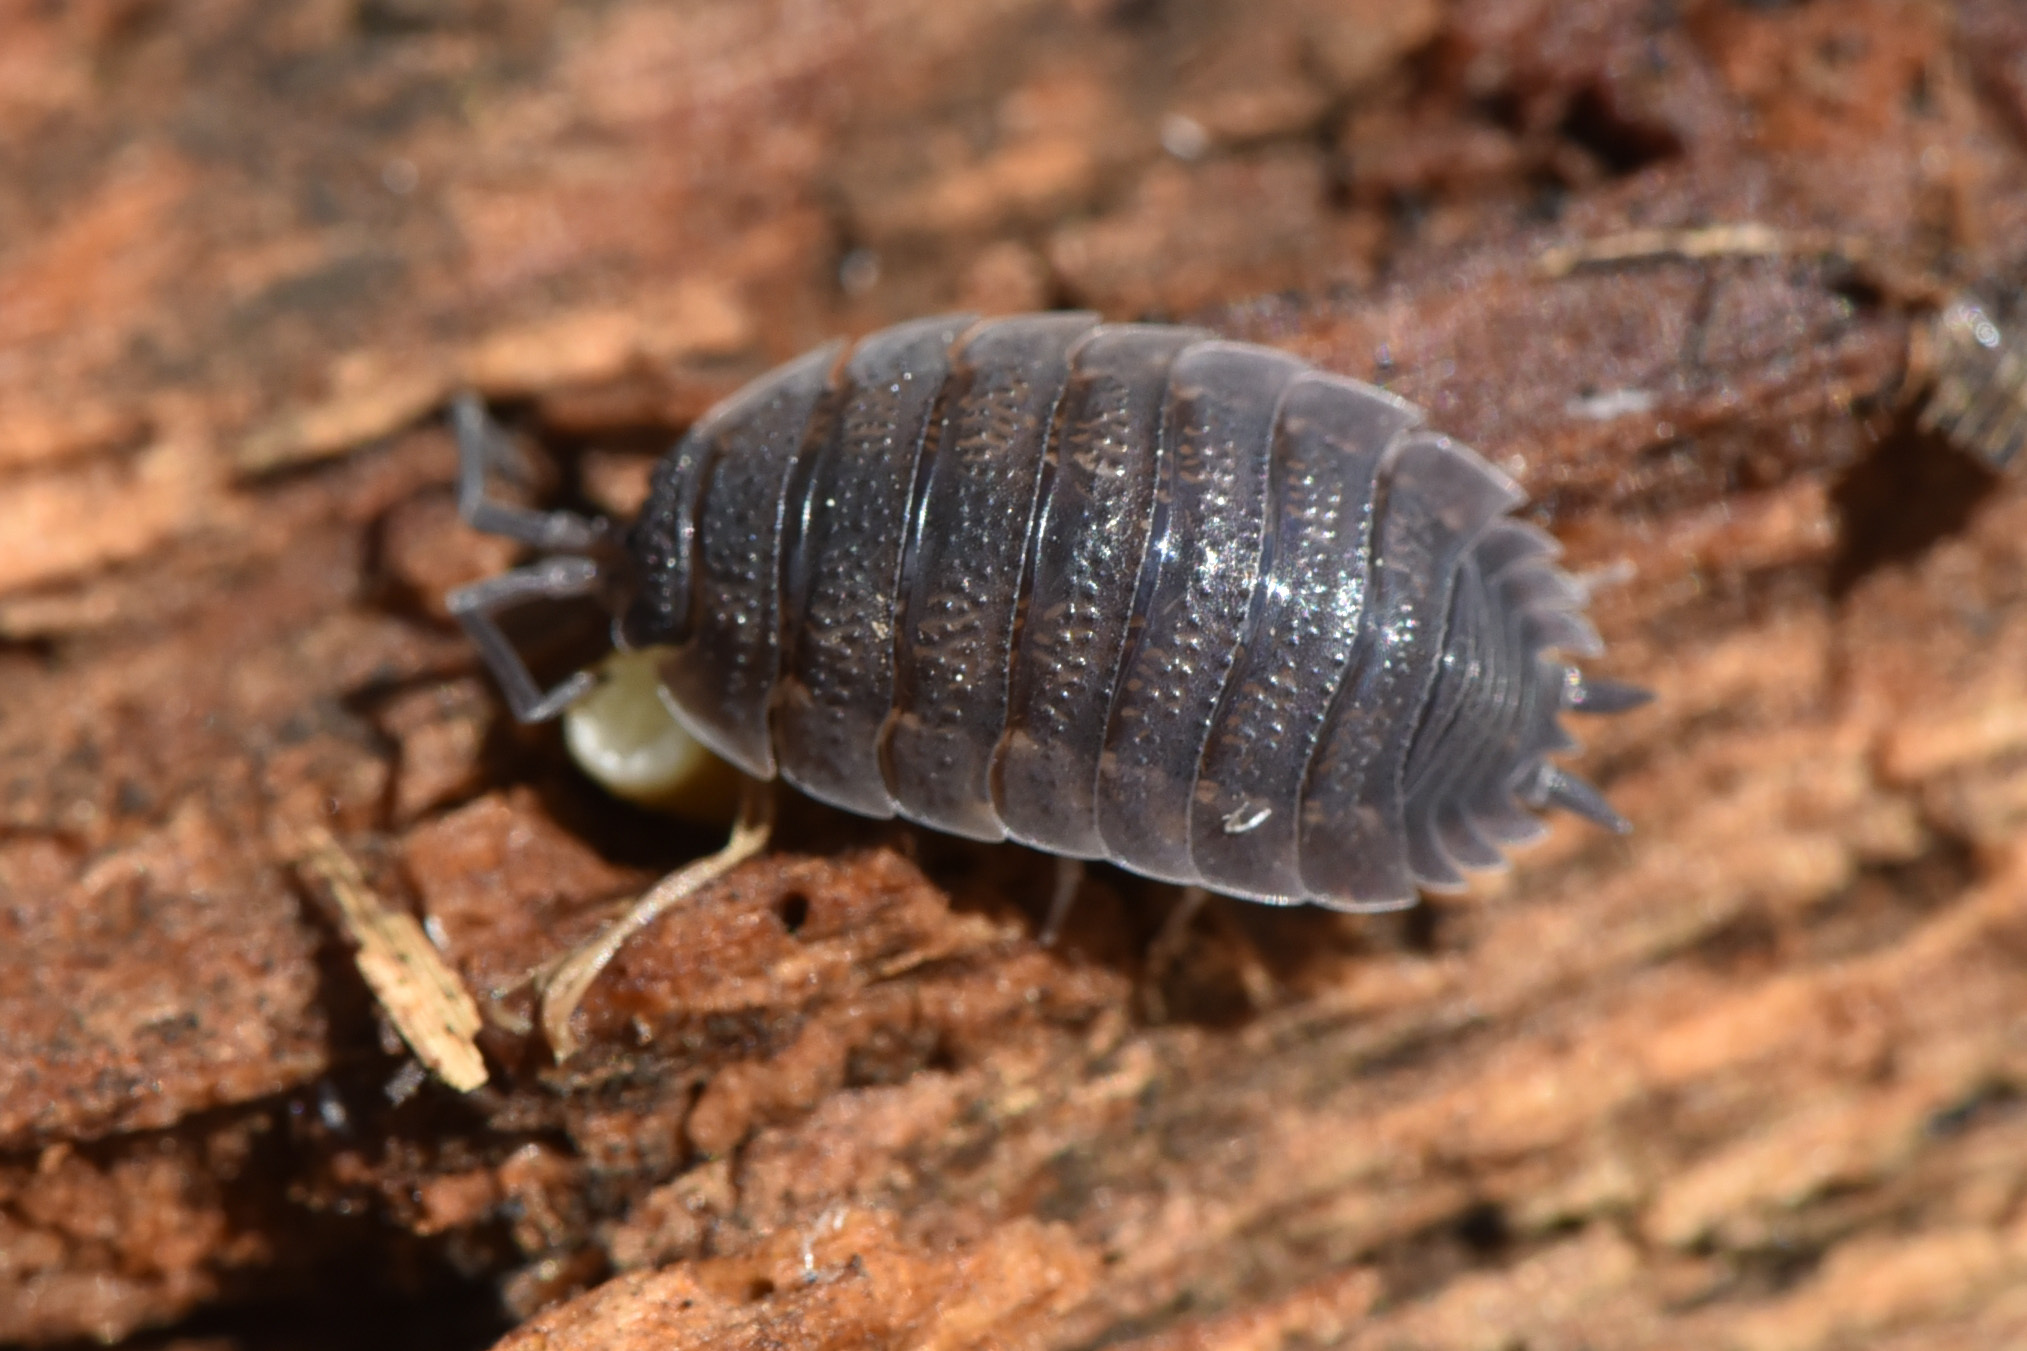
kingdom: Animalia
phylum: Arthropoda
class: Malacostraca
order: Isopoda
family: Porcellionidae
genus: Porcellio
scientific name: Porcellio scaber
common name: Common rough woodlouse
